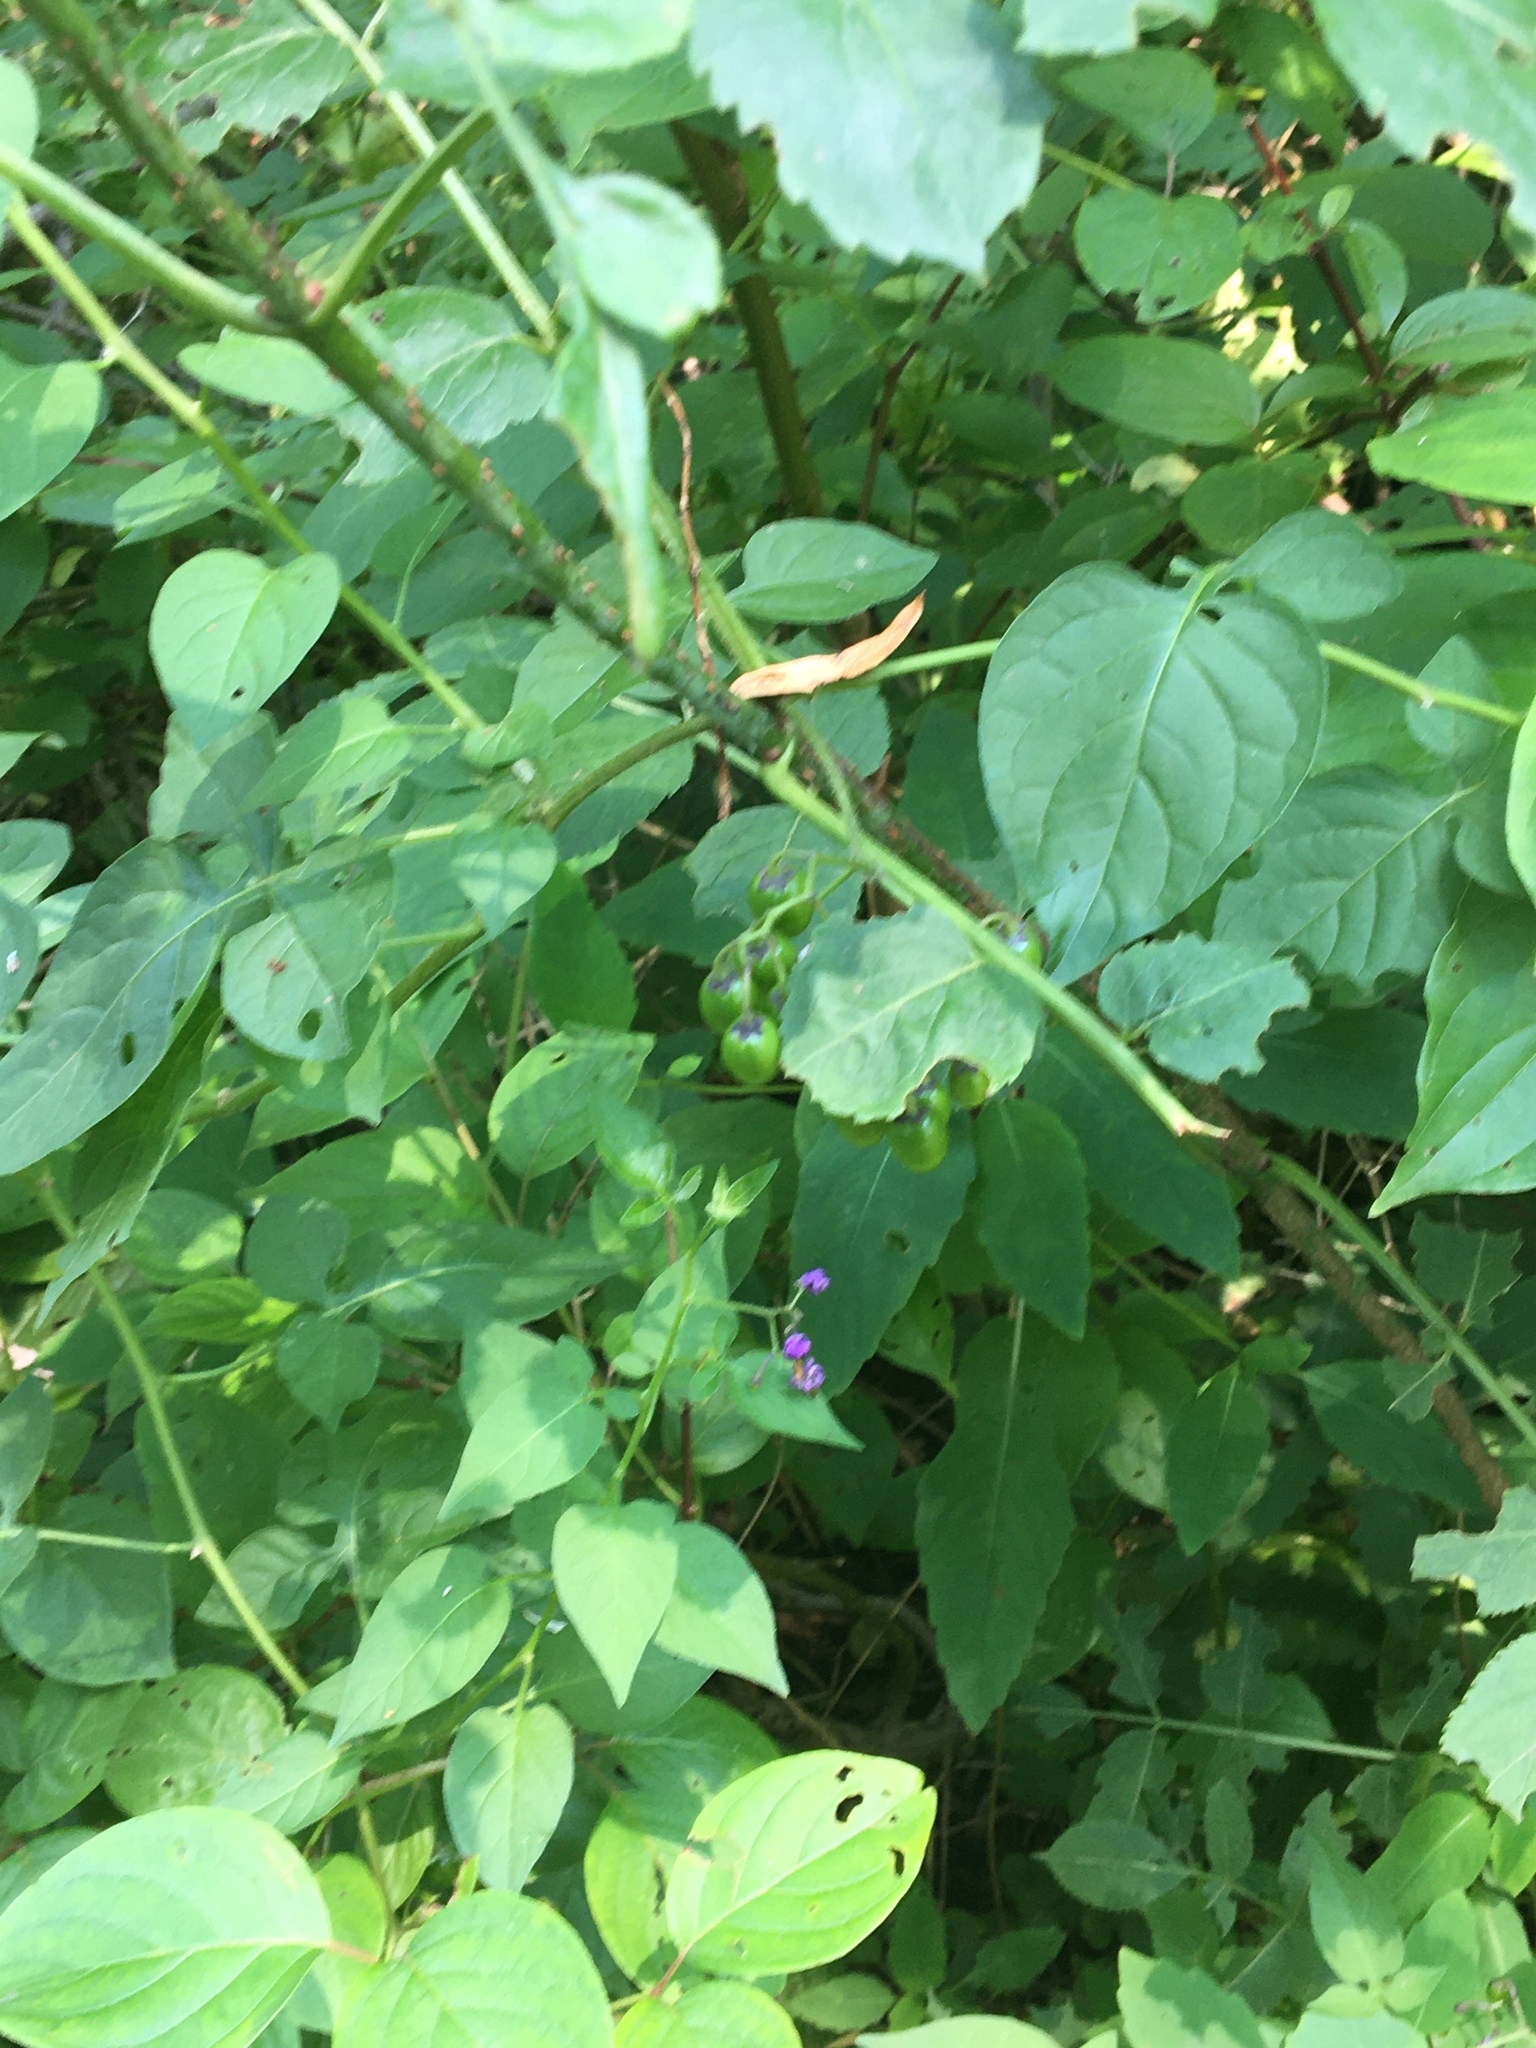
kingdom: Plantae
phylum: Tracheophyta
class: Magnoliopsida
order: Solanales
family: Solanaceae
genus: Solanum
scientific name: Solanum dulcamara
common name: Climbing nightshade
